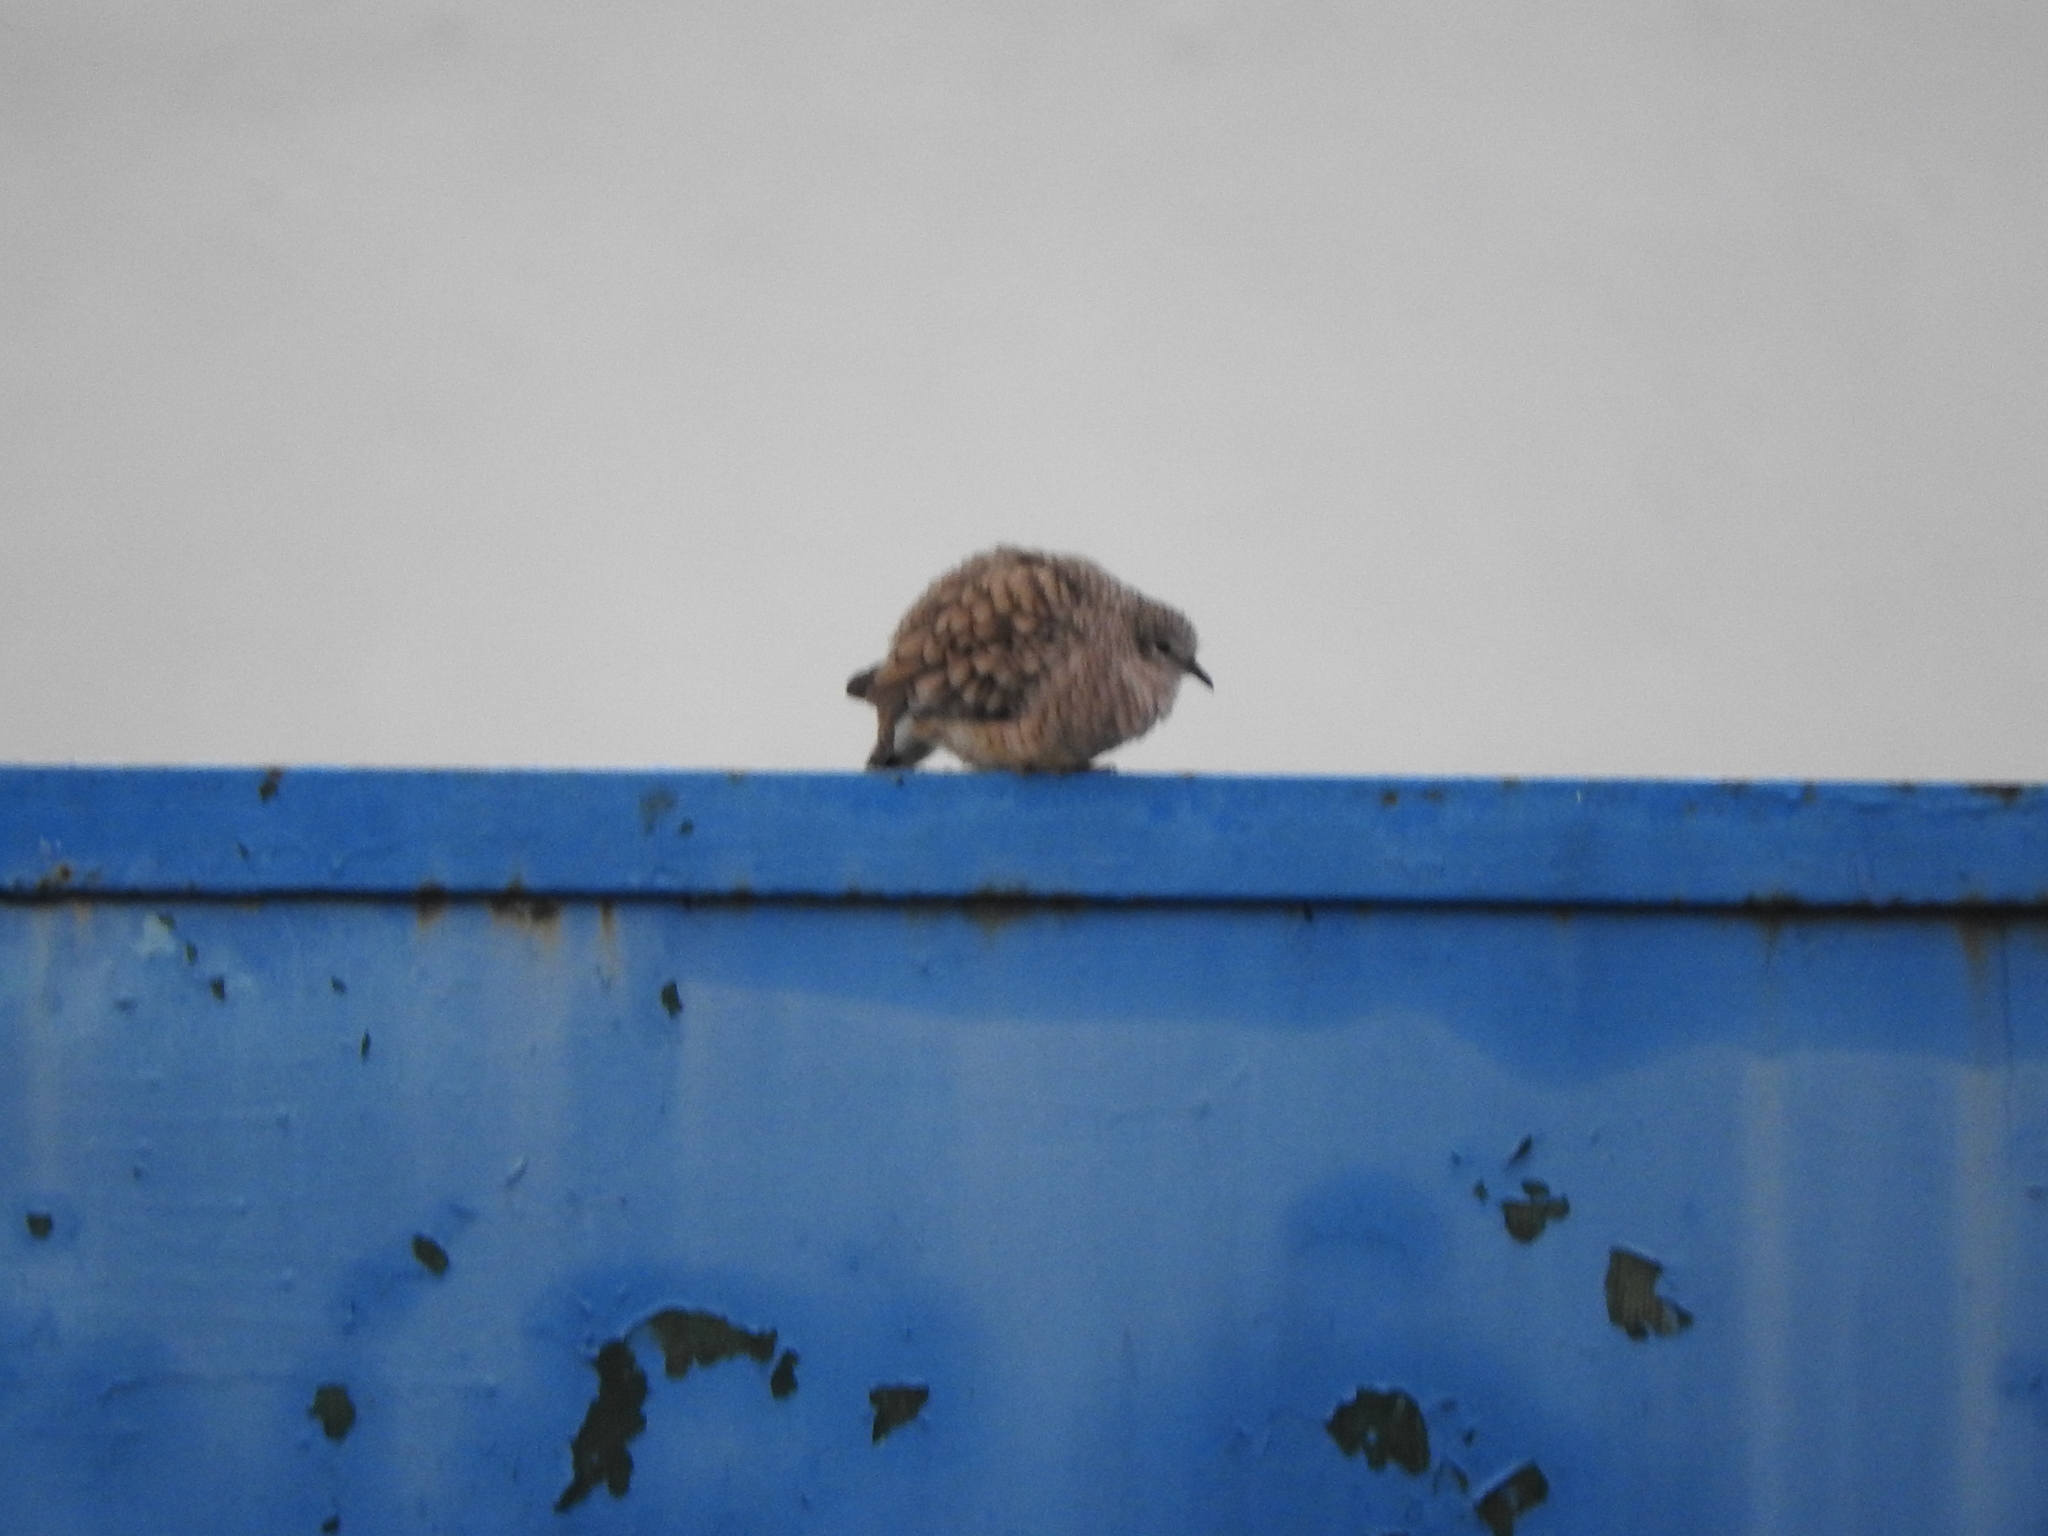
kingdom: Animalia
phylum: Chordata
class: Aves
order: Columbiformes
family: Columbidae
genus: Columbina
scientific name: Columbina inca
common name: Inca dove
